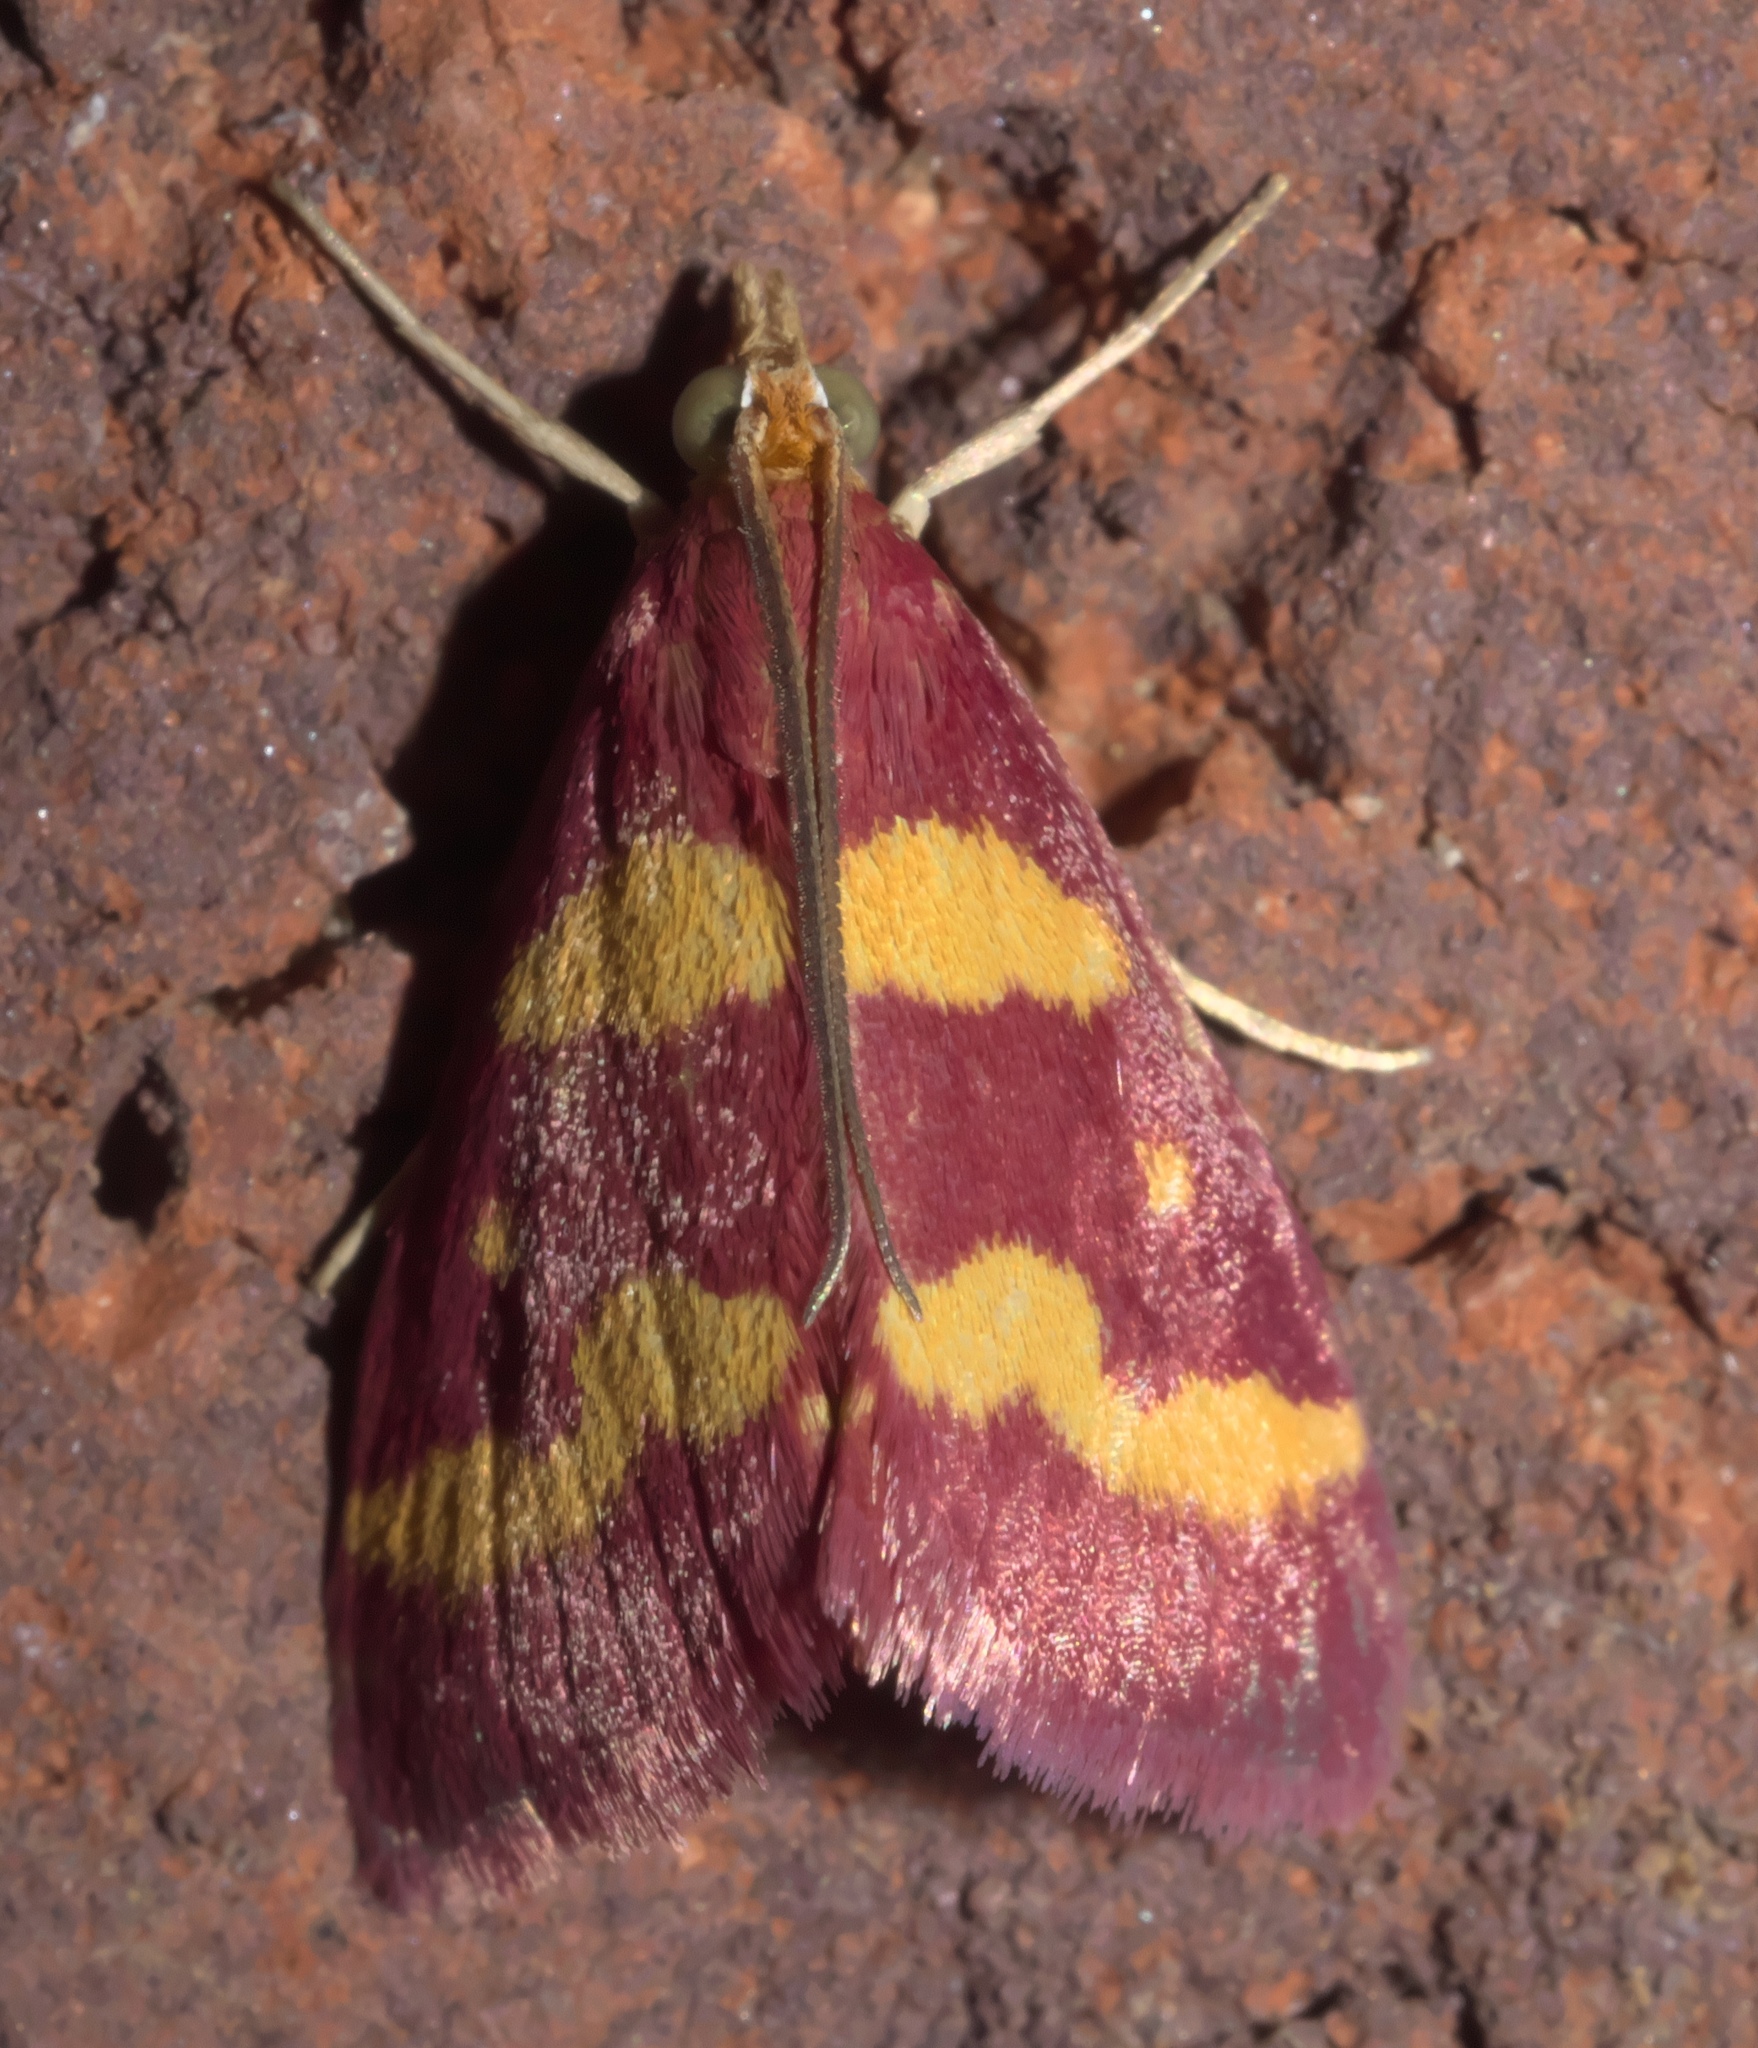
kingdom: Animalia
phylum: Arthropoda
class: Insecta
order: Lepidoptera
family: Crambidae
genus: Pyrausta
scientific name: Pyrausta tyralis
